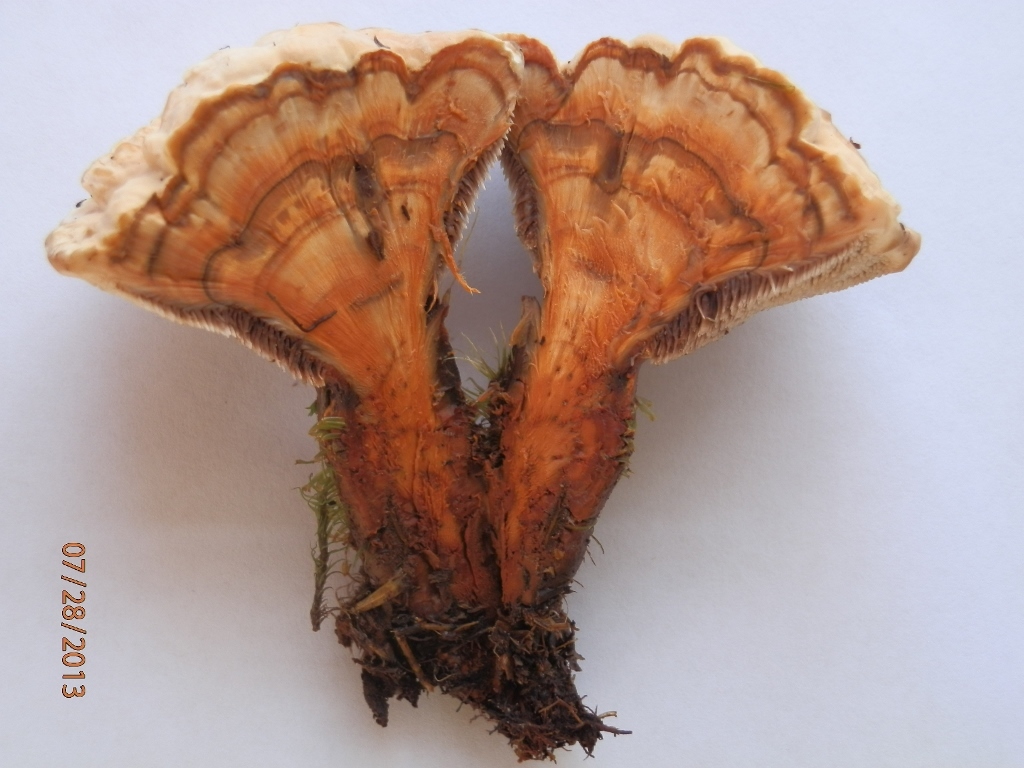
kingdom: Fungi
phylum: Basidiomycota
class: Agaricomycetes
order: Thelephorales
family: Bankeraceae
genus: Hydnellum
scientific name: Hydnellum aurantiacum
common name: Orange tooth
